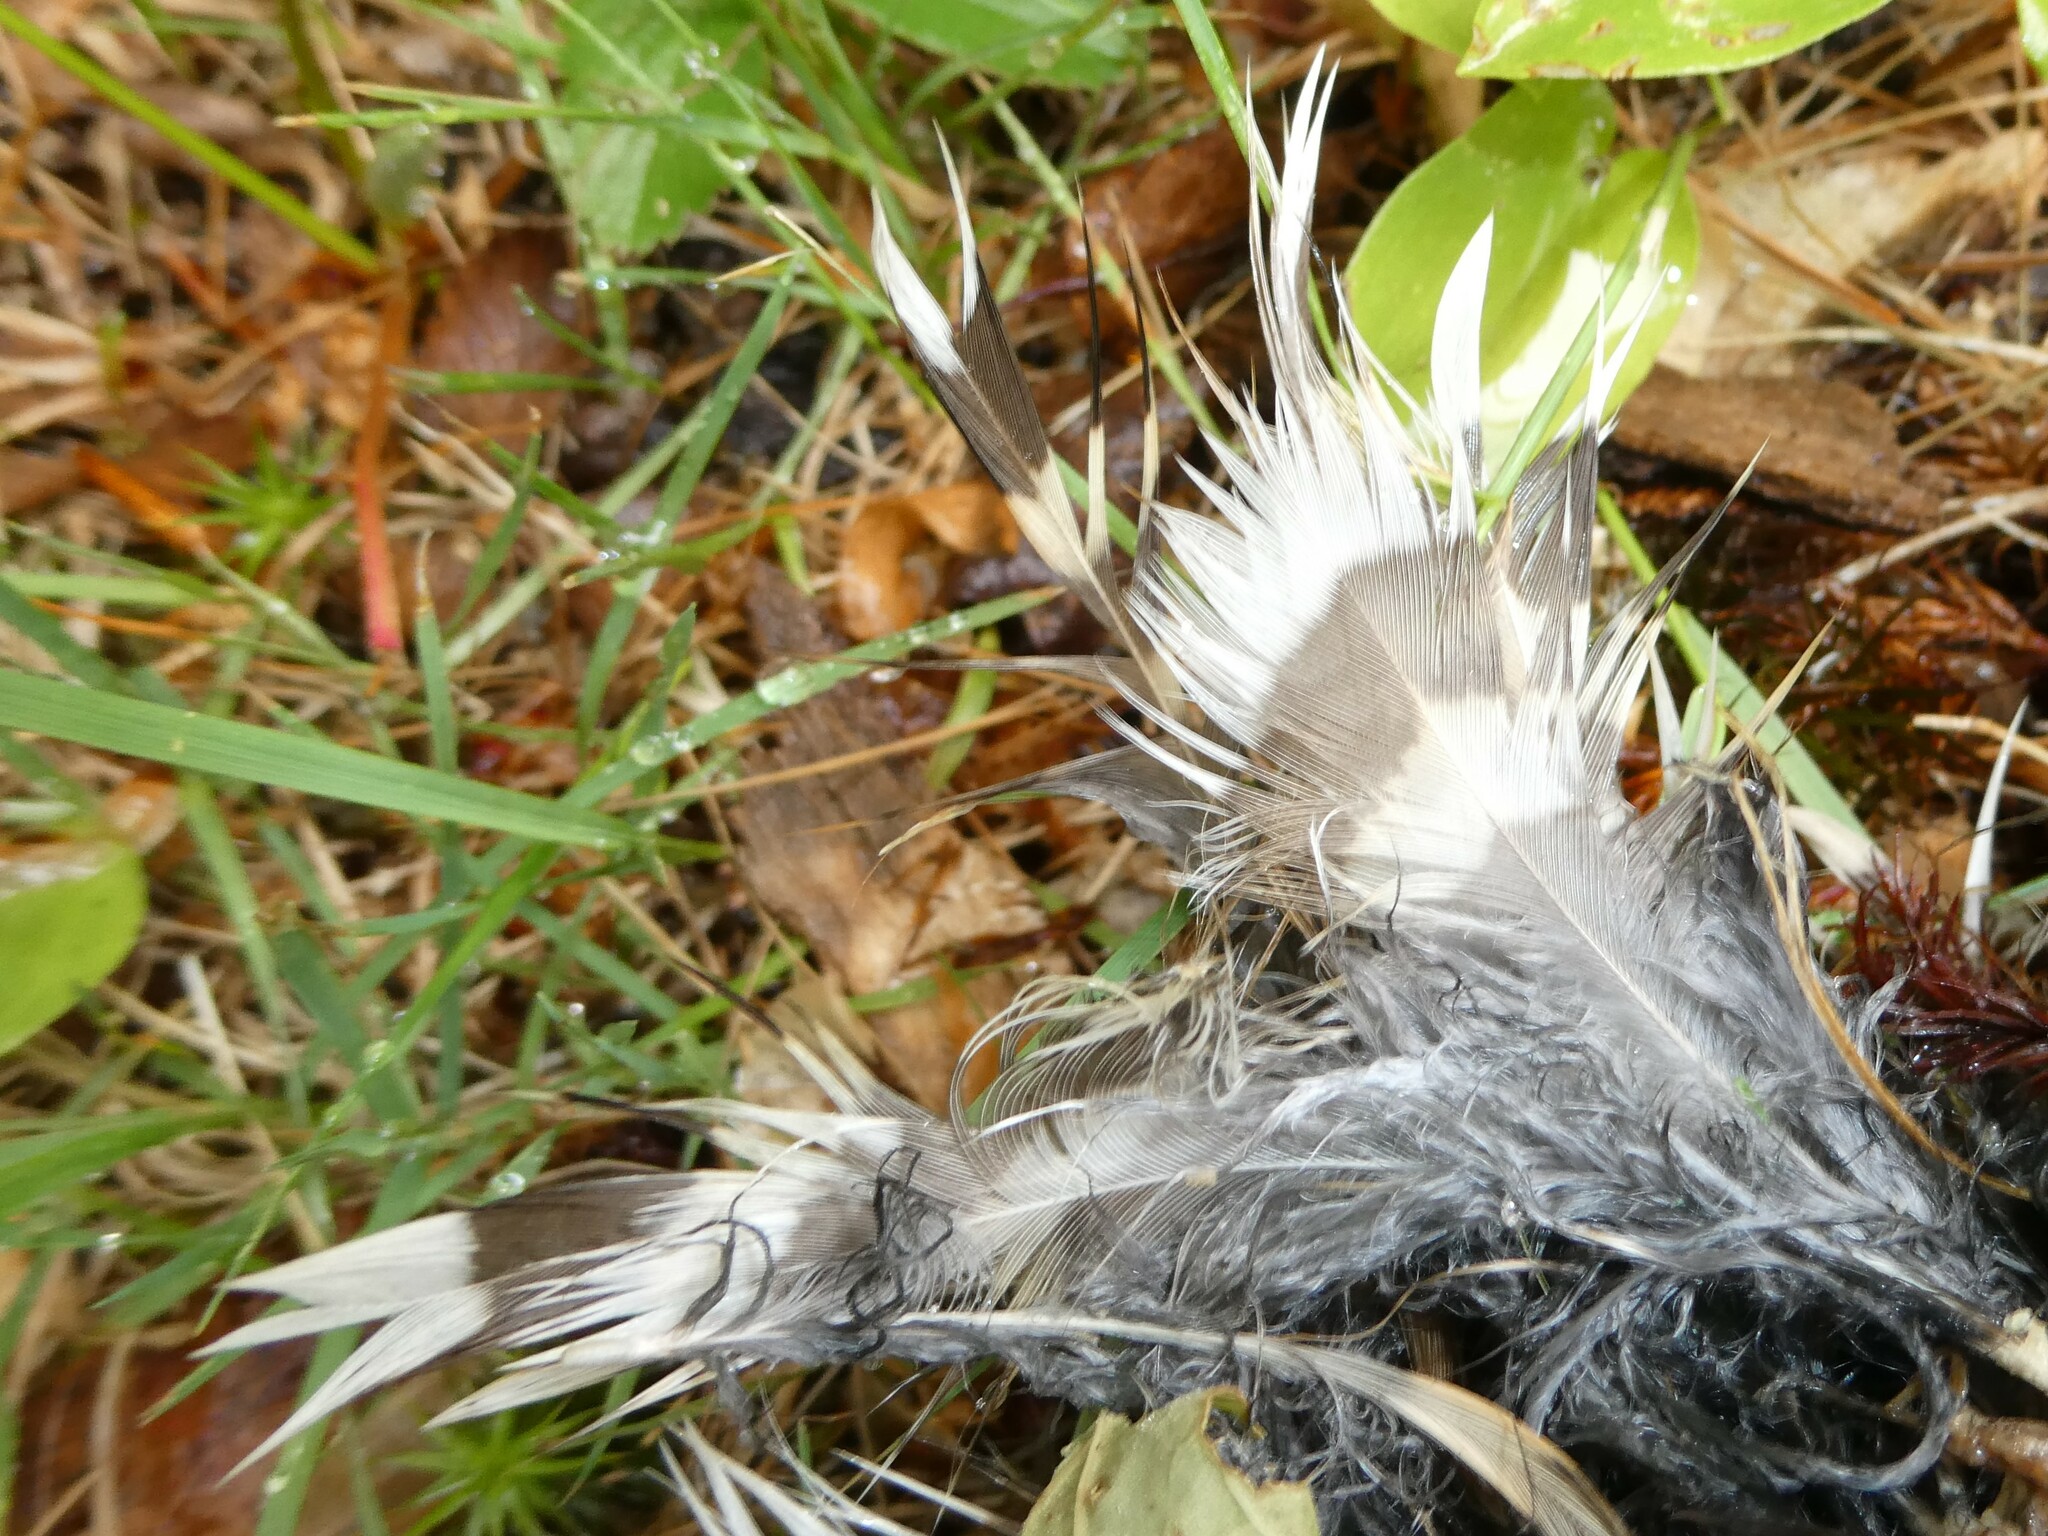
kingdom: Animalia
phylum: Chordata
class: Aves
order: Galliformes
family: Phasianidae
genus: Bonasa
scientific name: Bonasa umbellus
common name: Ruffed grouse
